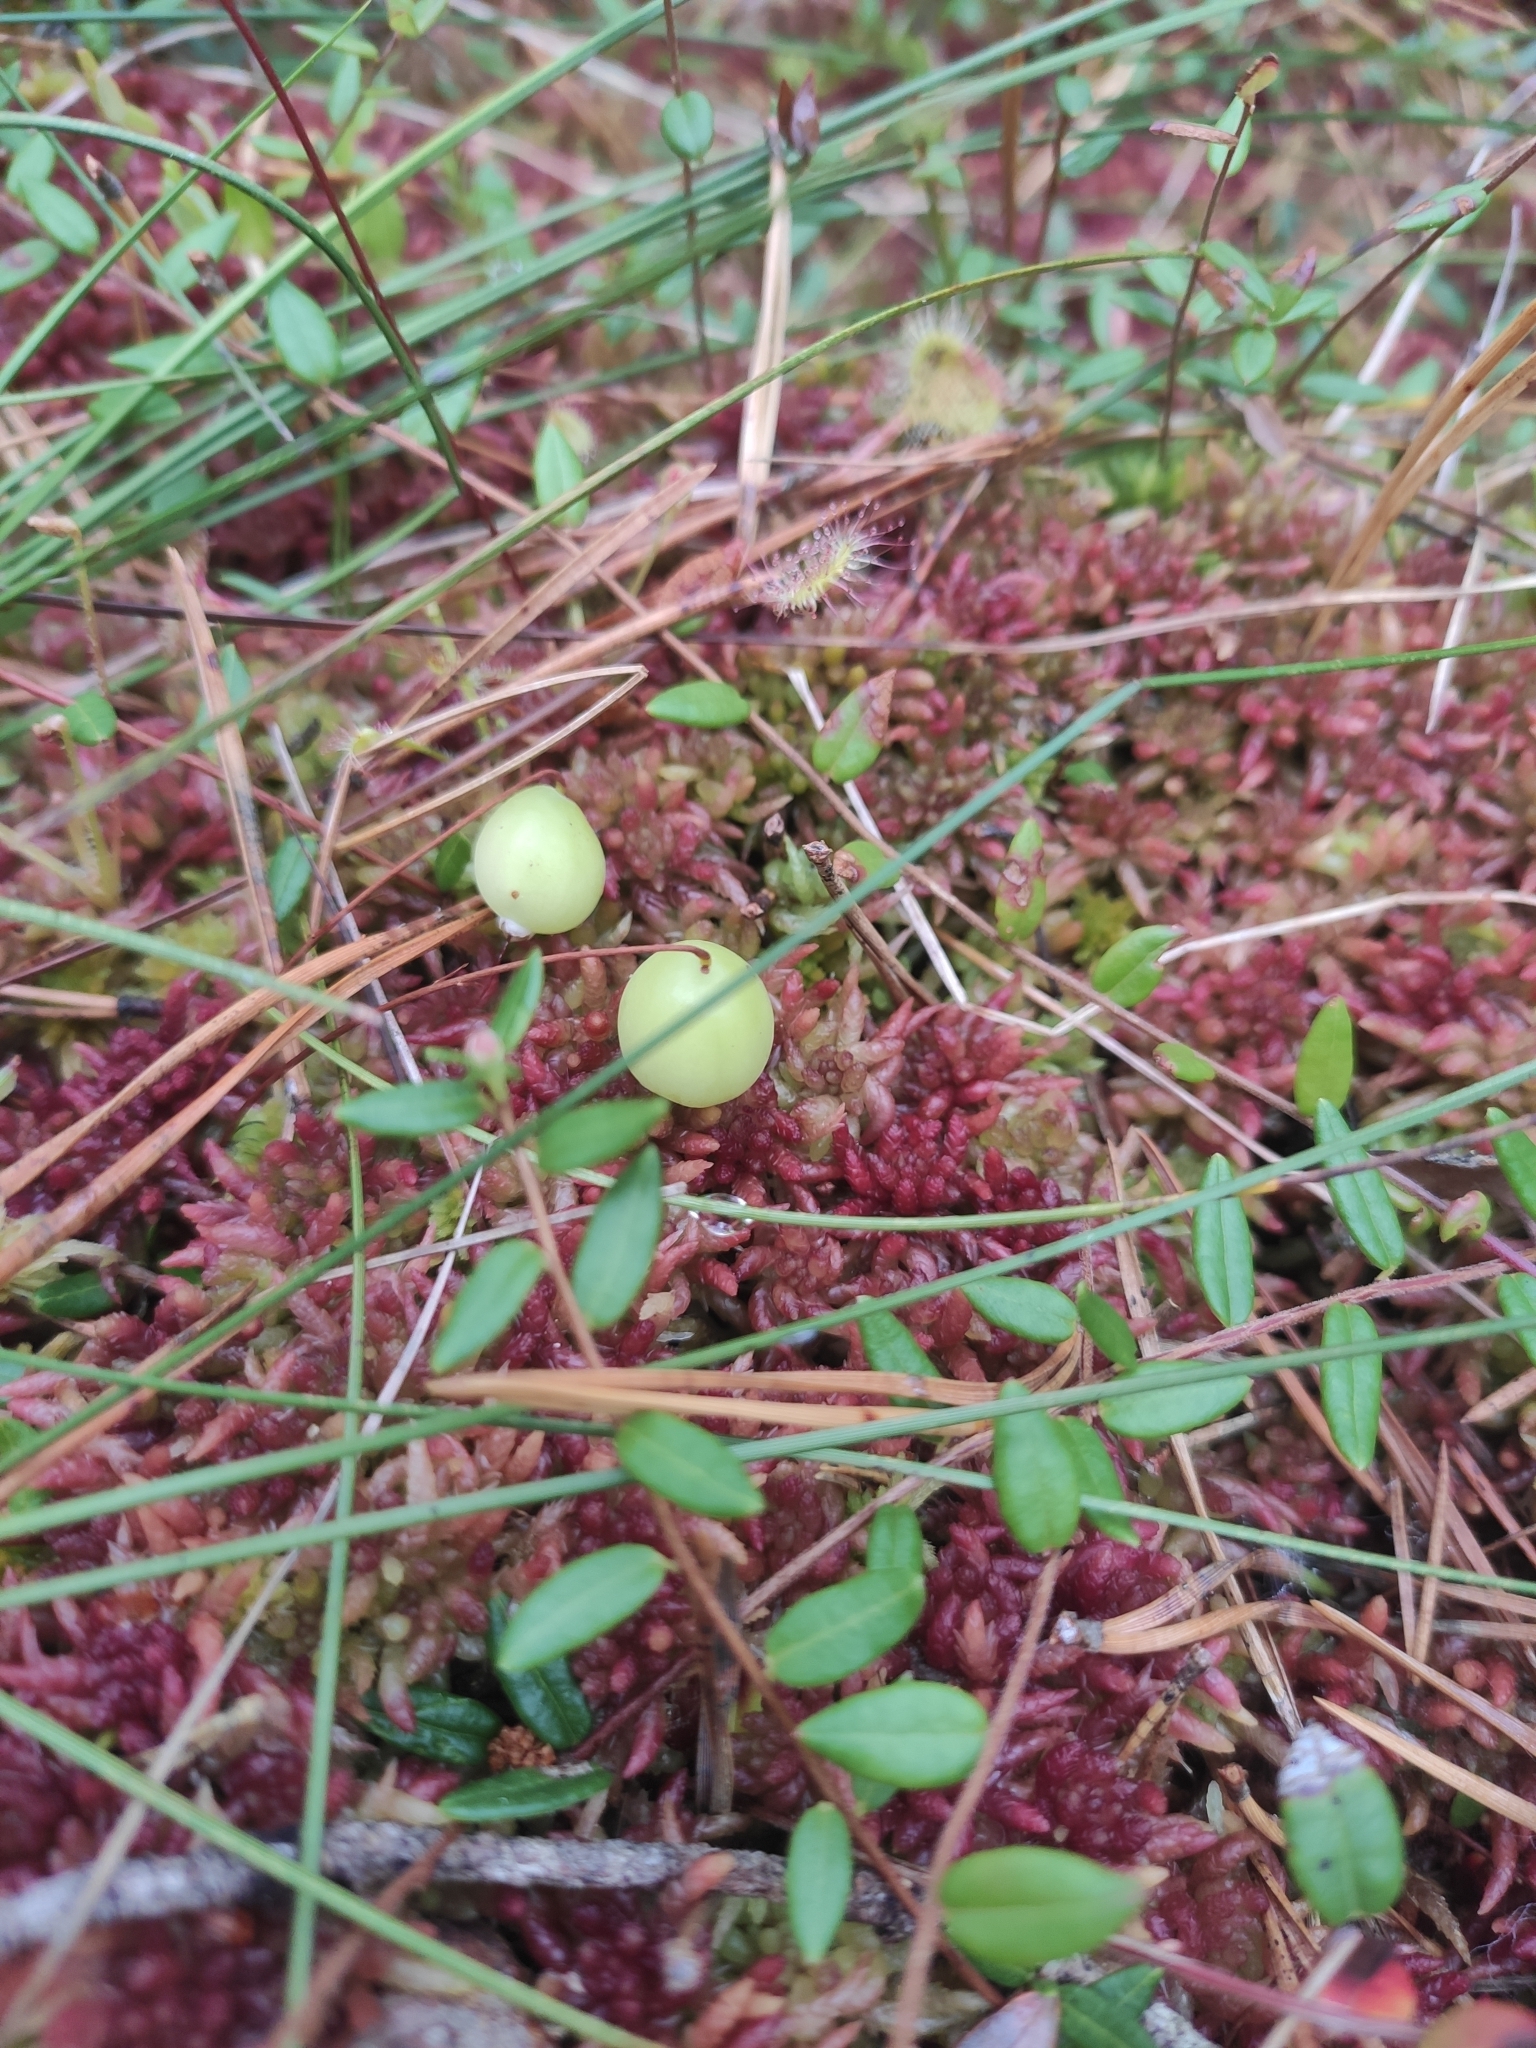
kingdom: Plantae
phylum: Tracheophyta
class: Magnoliopsida
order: Ericales
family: Ericaceae
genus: Vaccinium
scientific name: Vaccinium oxycoccos
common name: Cranberry
